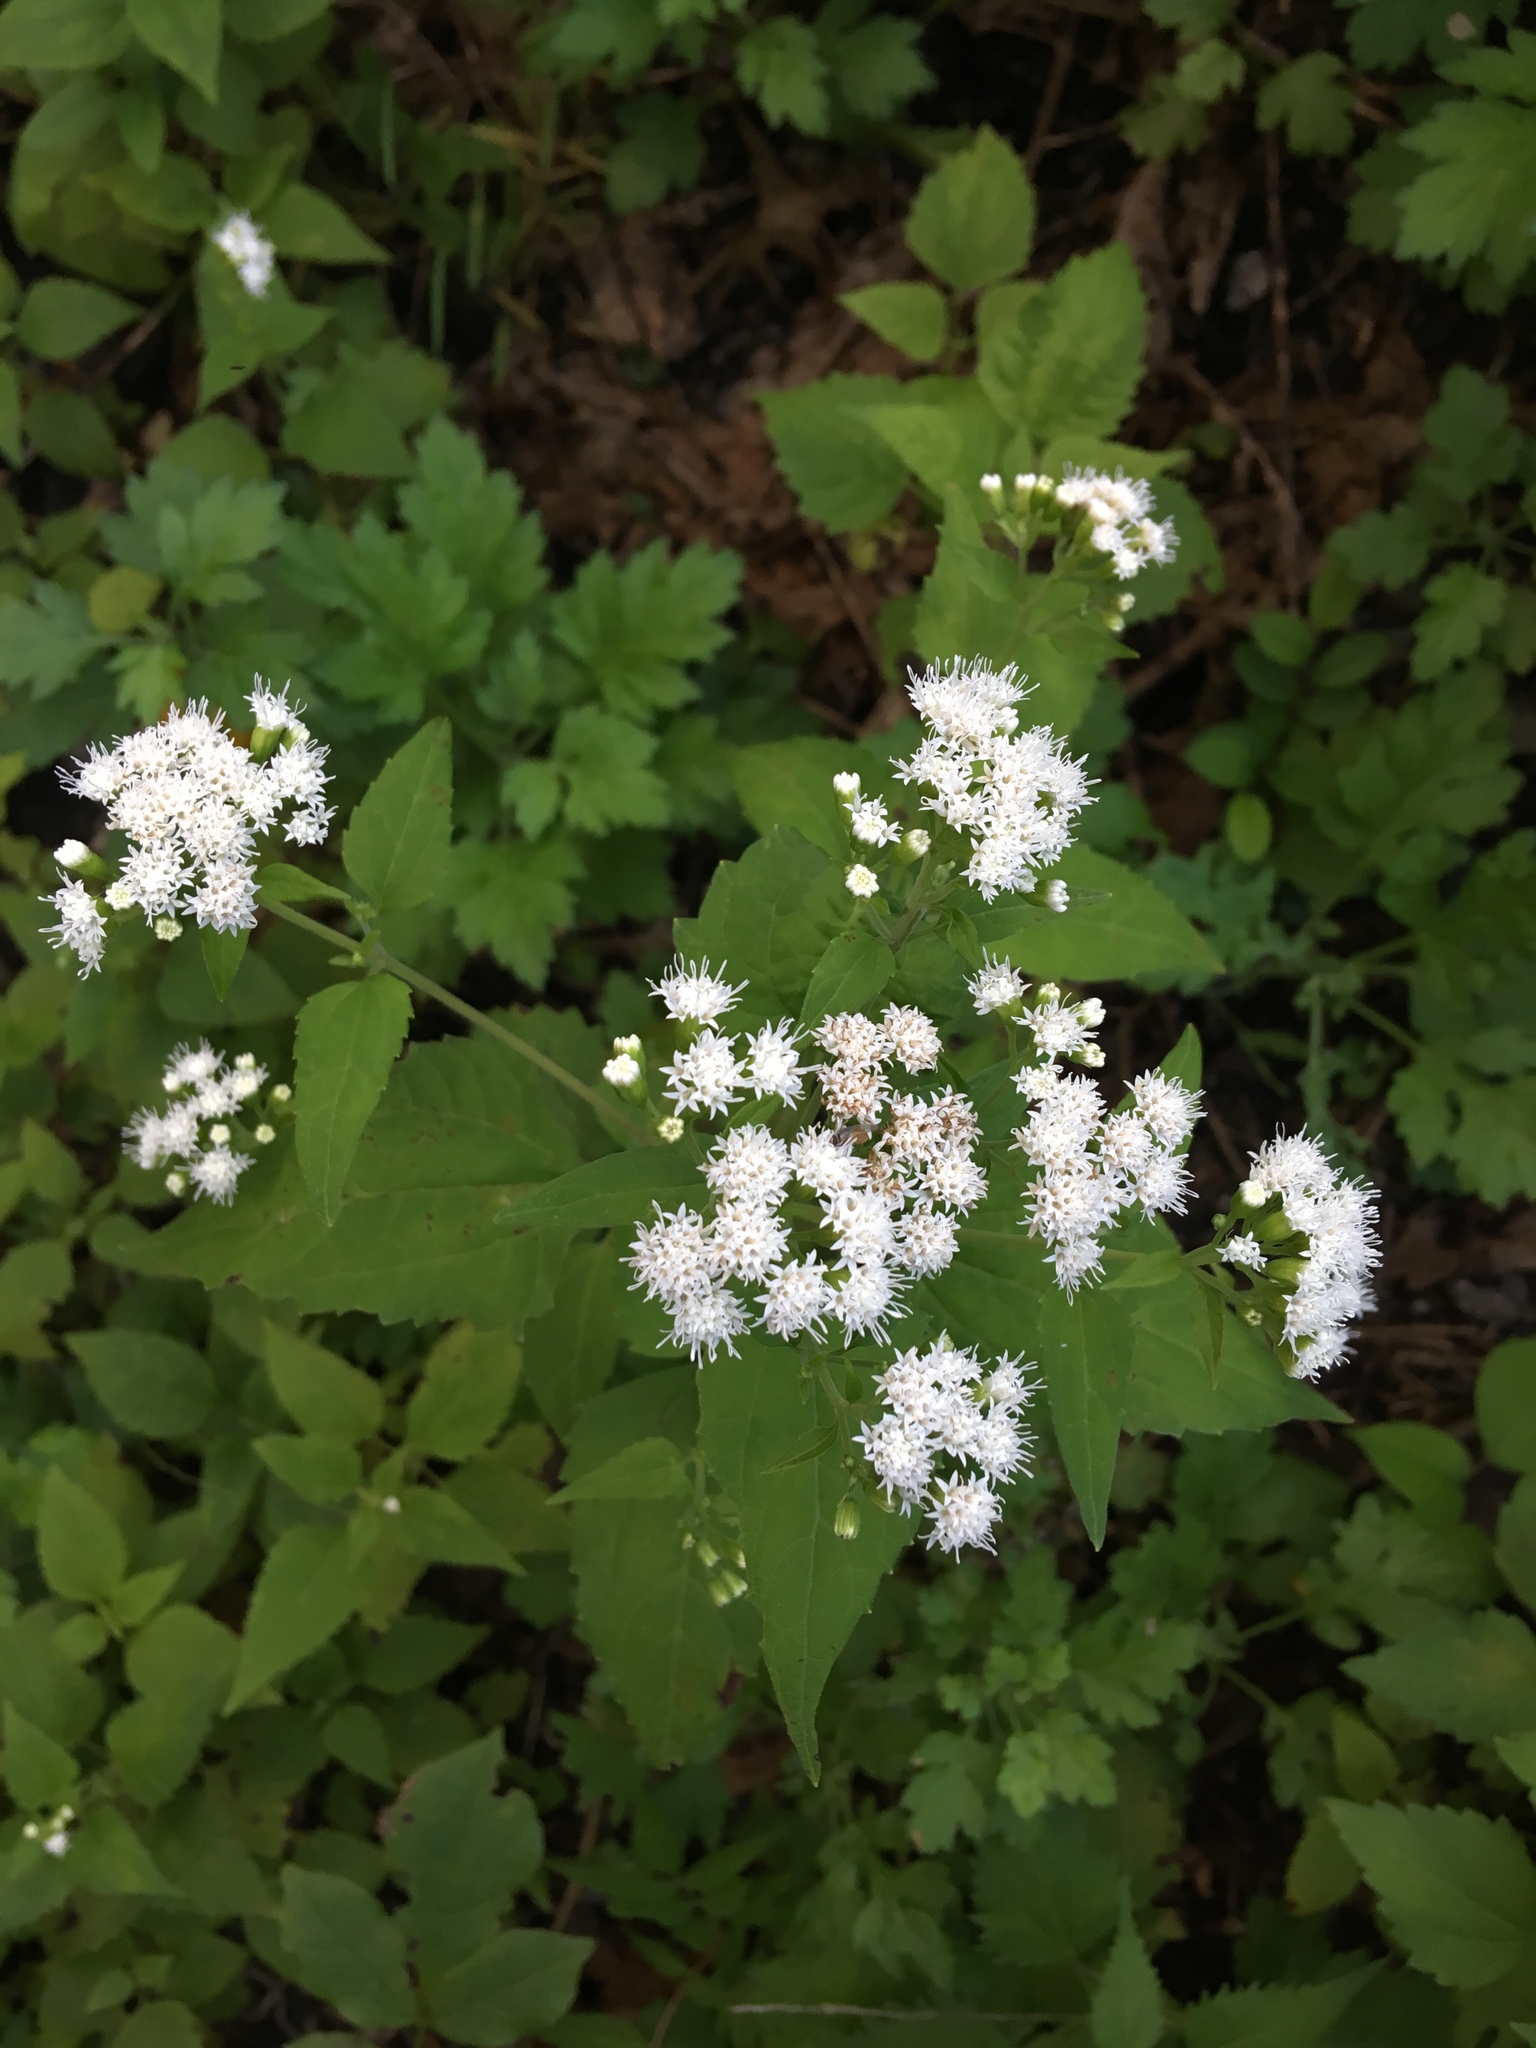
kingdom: Plantae
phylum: Tracheophyta
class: Magnoliopsida
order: Asterales
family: Asteraceae
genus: Ageratina
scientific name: Ageratina altissima
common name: White snakeroot
